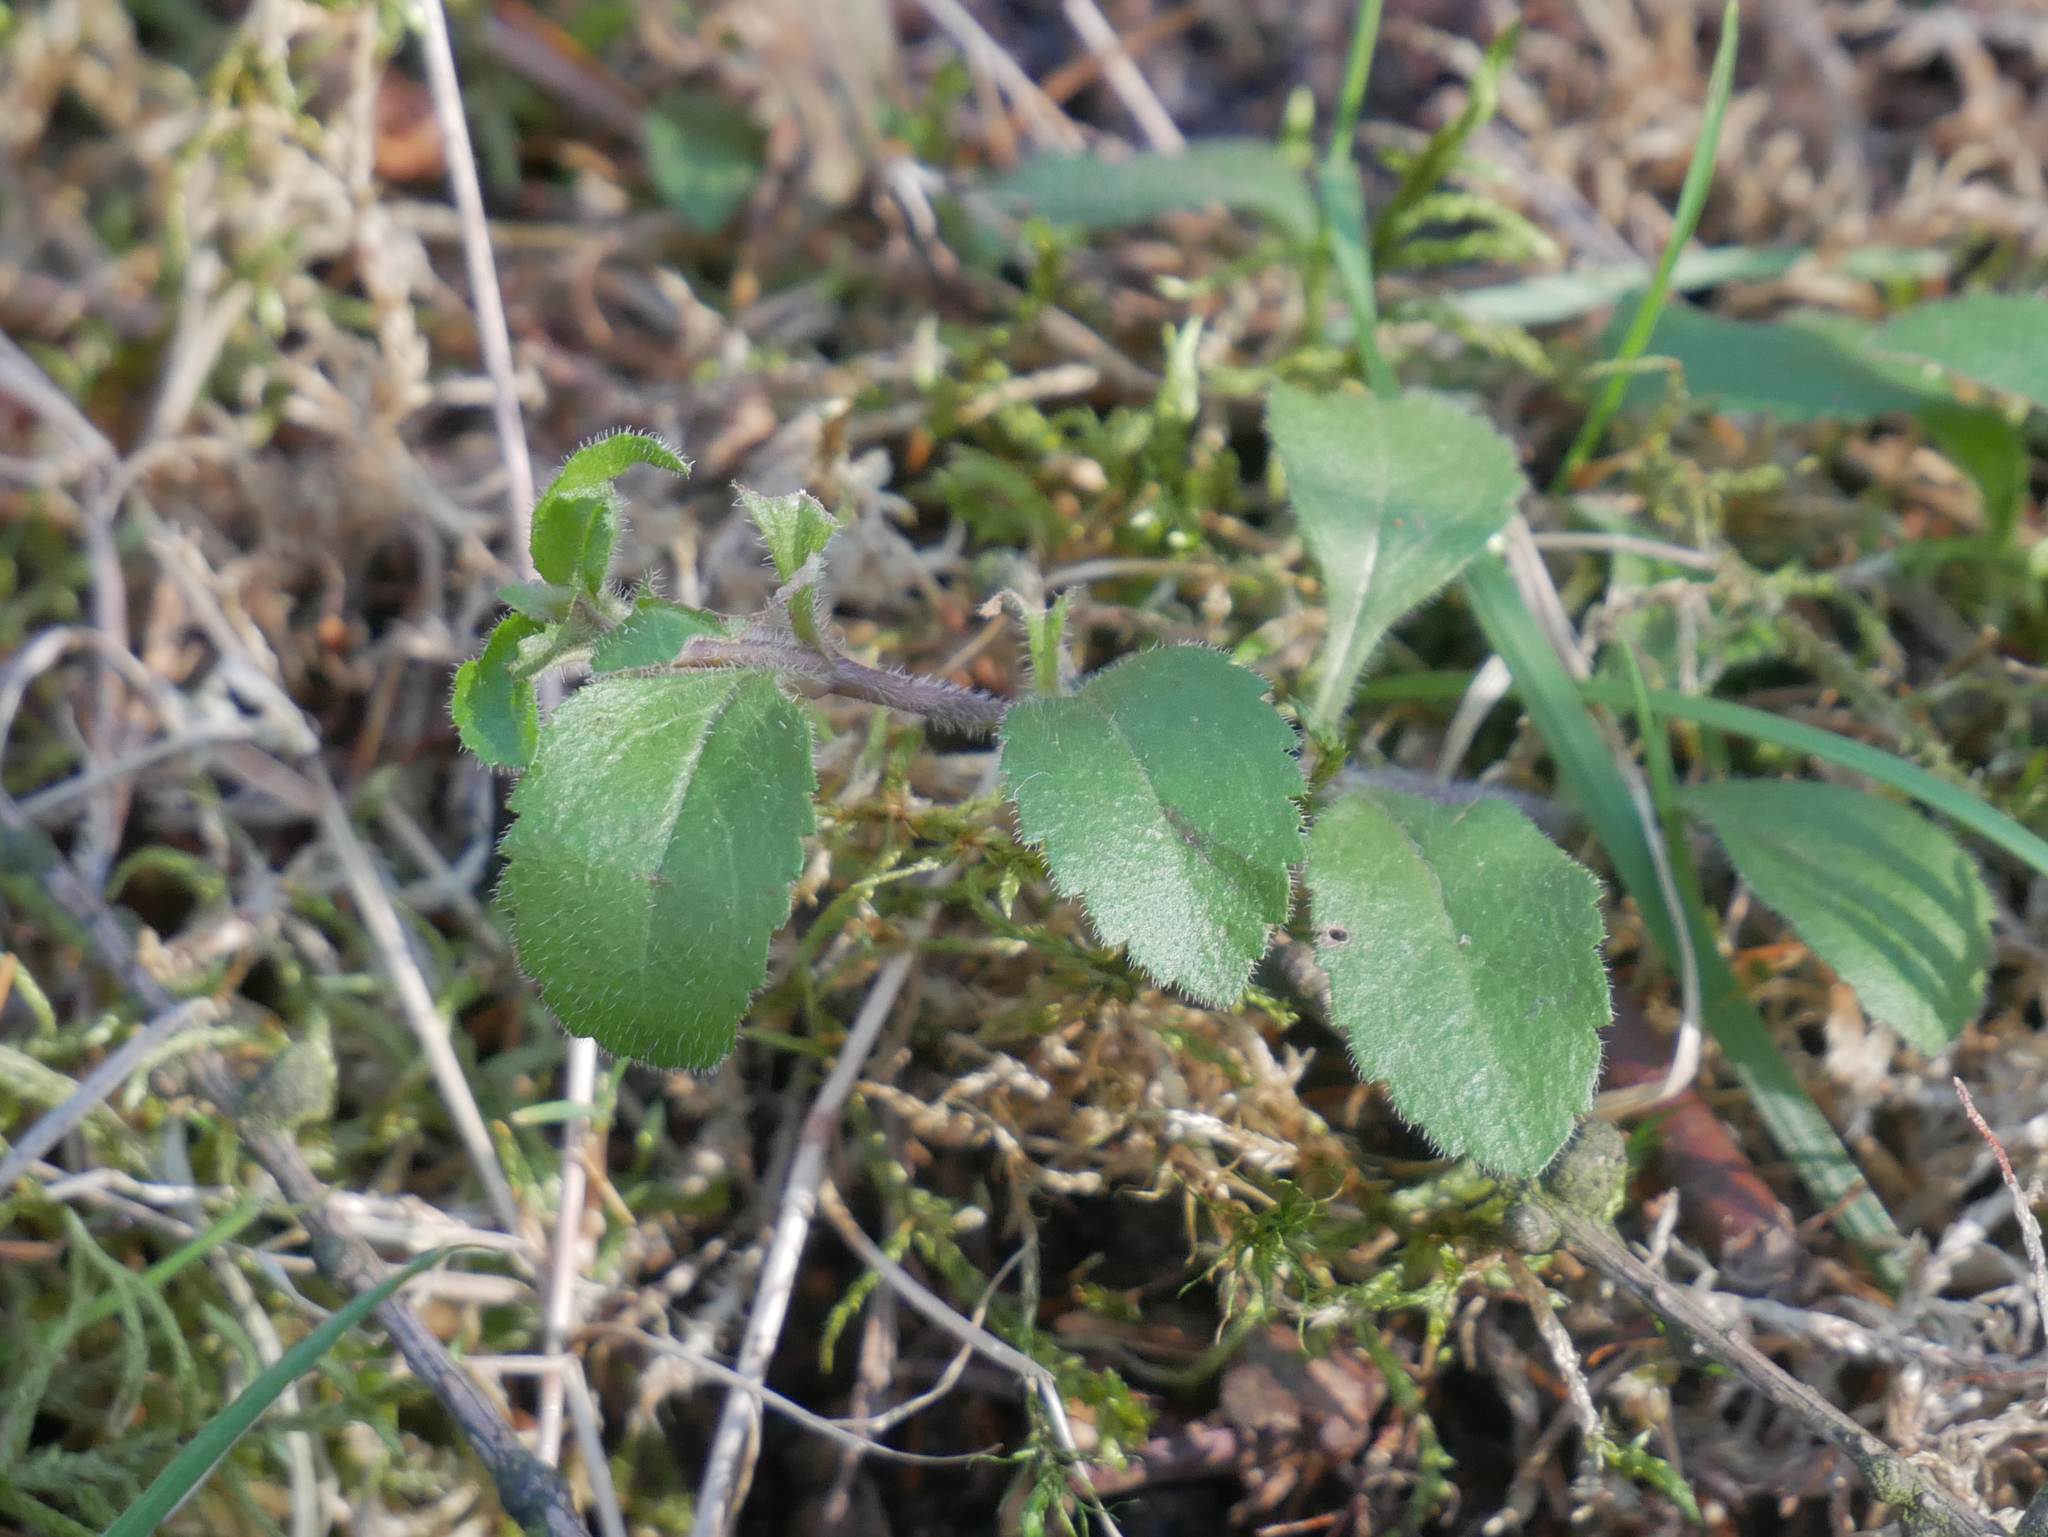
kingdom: Plantae
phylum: Tracheophyta
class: Magnoliopsida
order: Lamiales
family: Plantaginaceae
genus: Veronica
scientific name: Veronica officinalis
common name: Common speedwell
